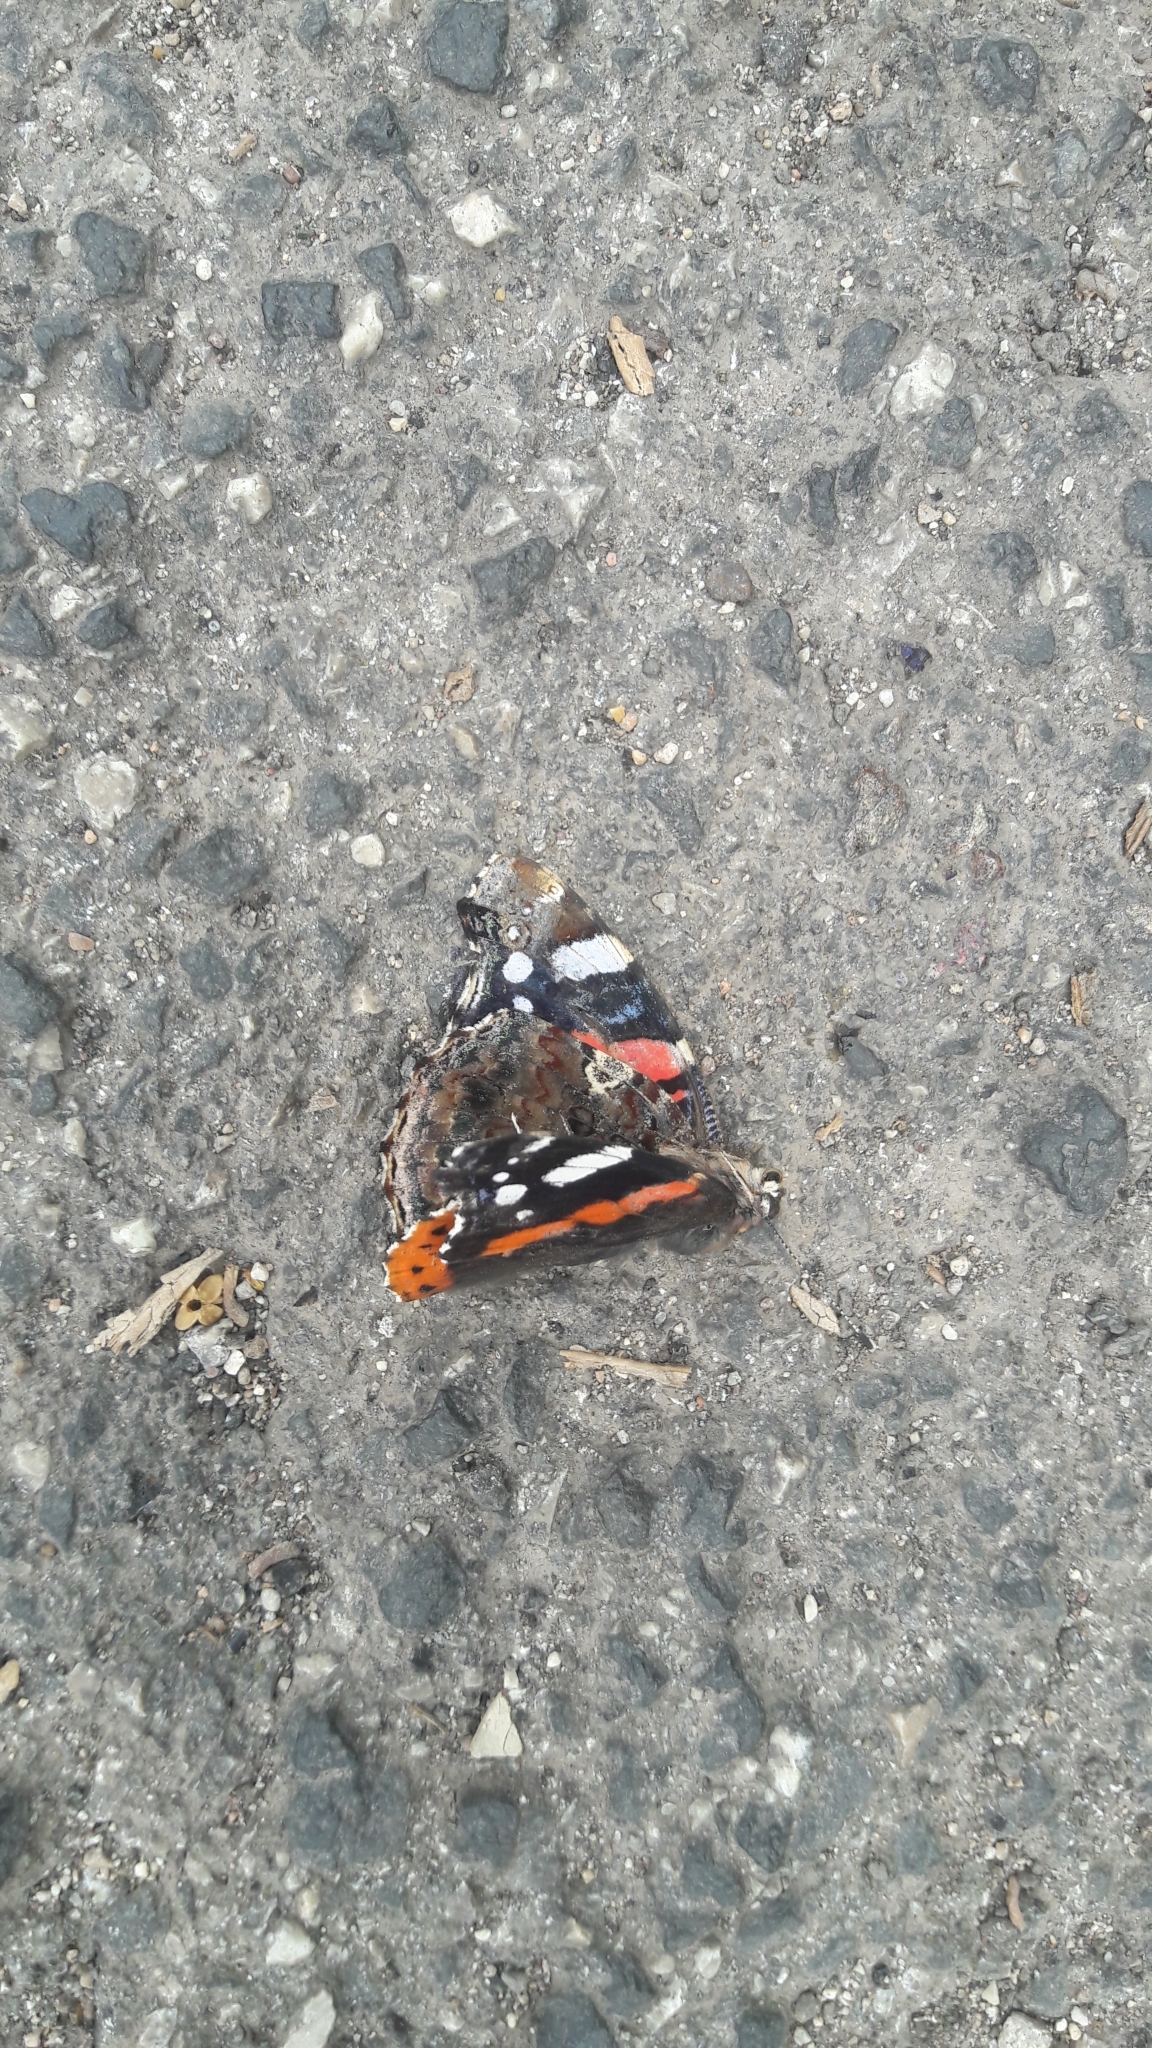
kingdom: Animalia
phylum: Arthropoda
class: Insecta
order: Lepidoptera
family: Nymphalidae
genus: Vanessa
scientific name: Vanessa atalanta
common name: Red admiral
